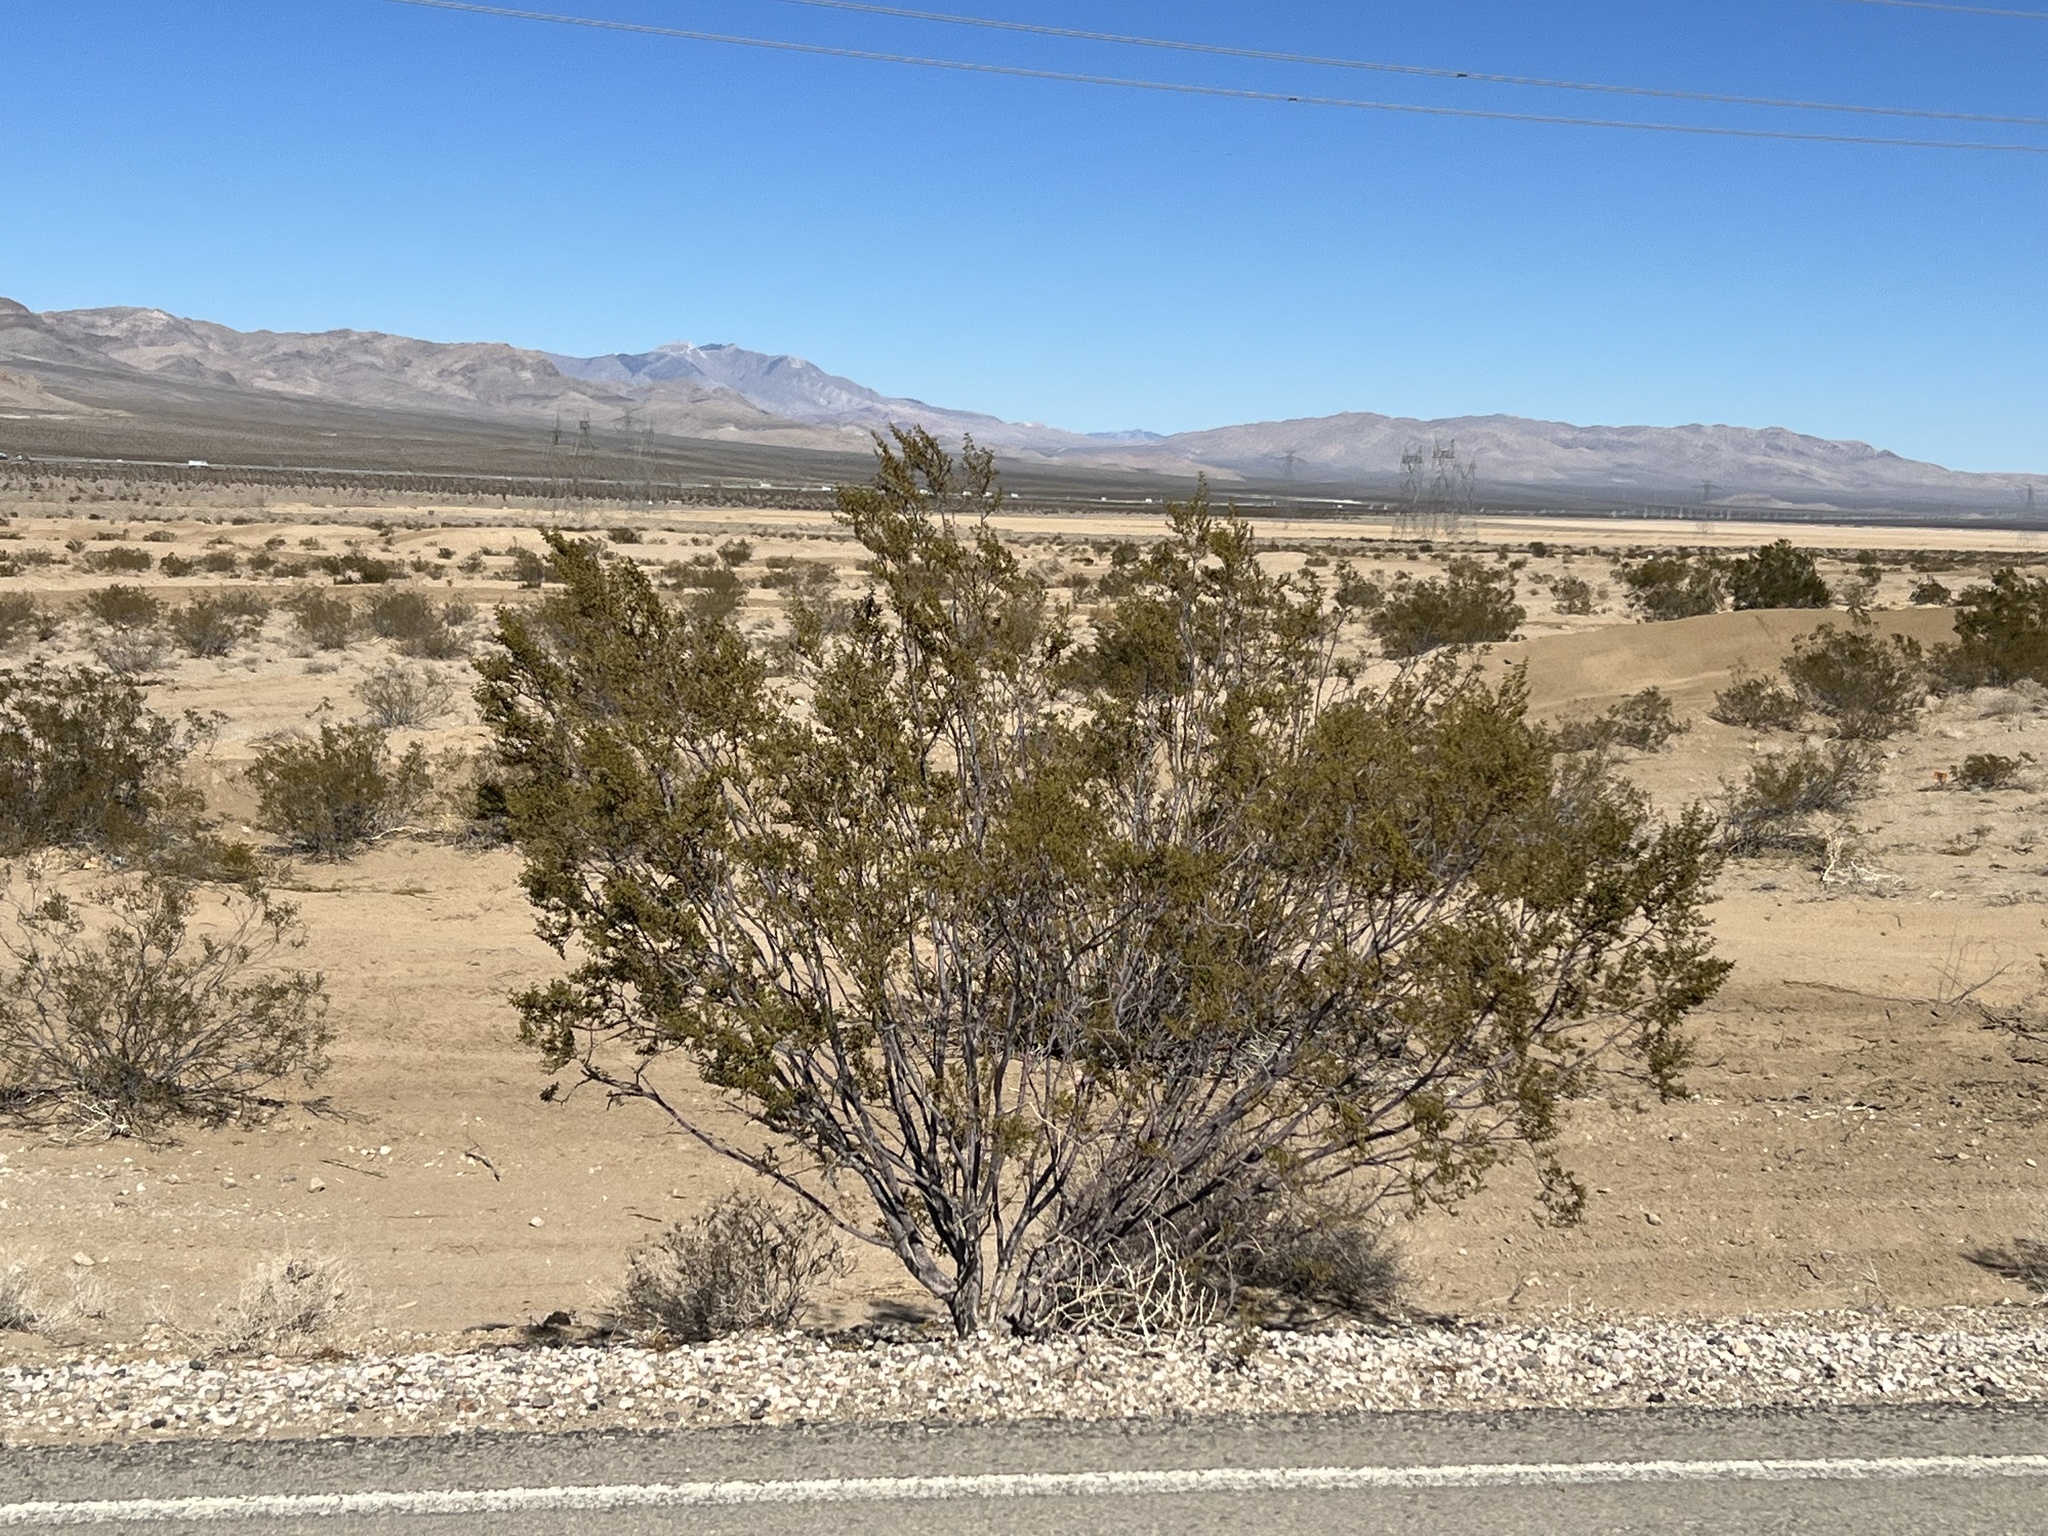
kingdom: Plantae
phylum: Tracheophyta
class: Magnoliopsida
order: Zygophyllales
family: Zygophyllaceae
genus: Larrea
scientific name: Larrea tridentata
